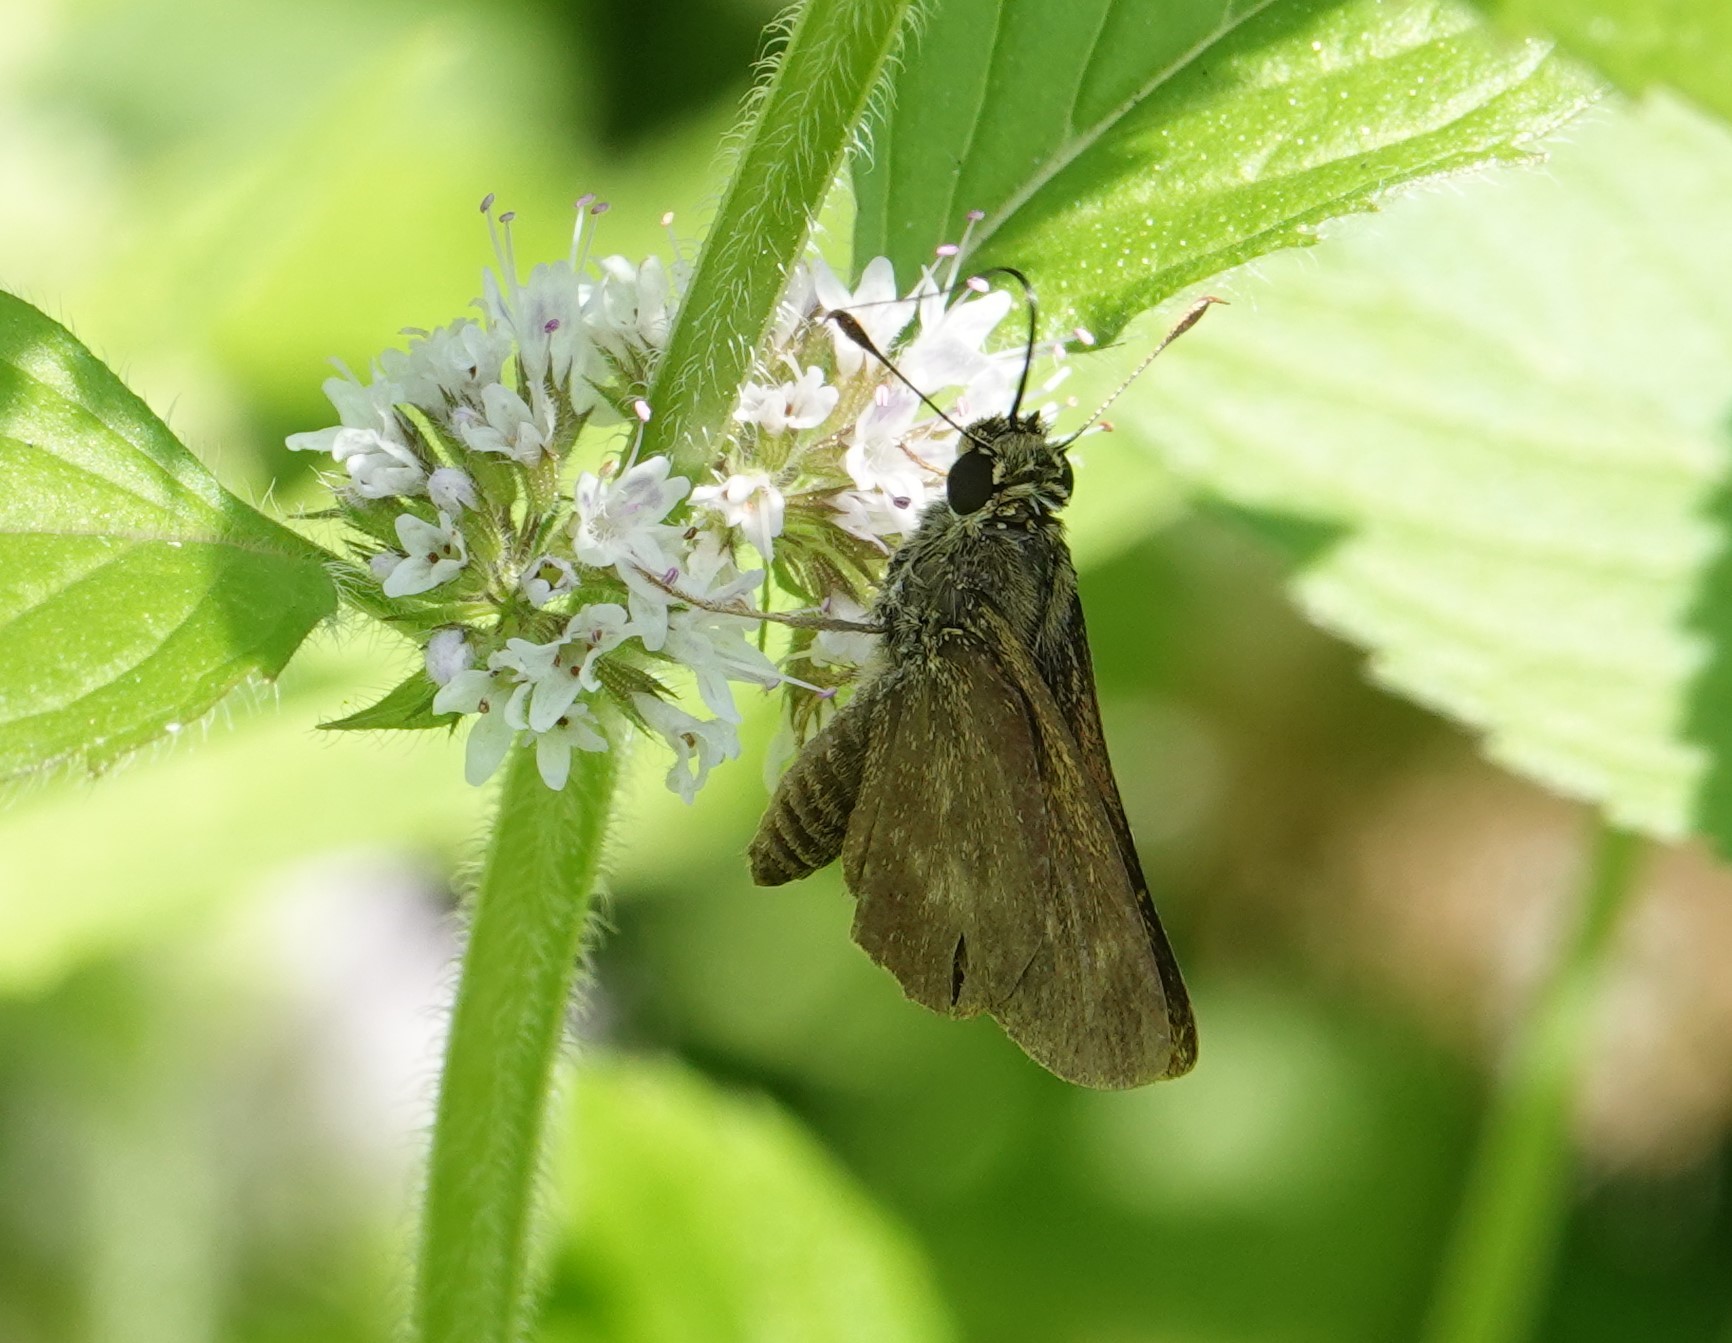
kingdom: Animalia
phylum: Arthropoda
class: Insecta
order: Lepidoptera
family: Hesperiidae
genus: Polites
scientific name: Polites egeremet
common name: Northern broken-dash
